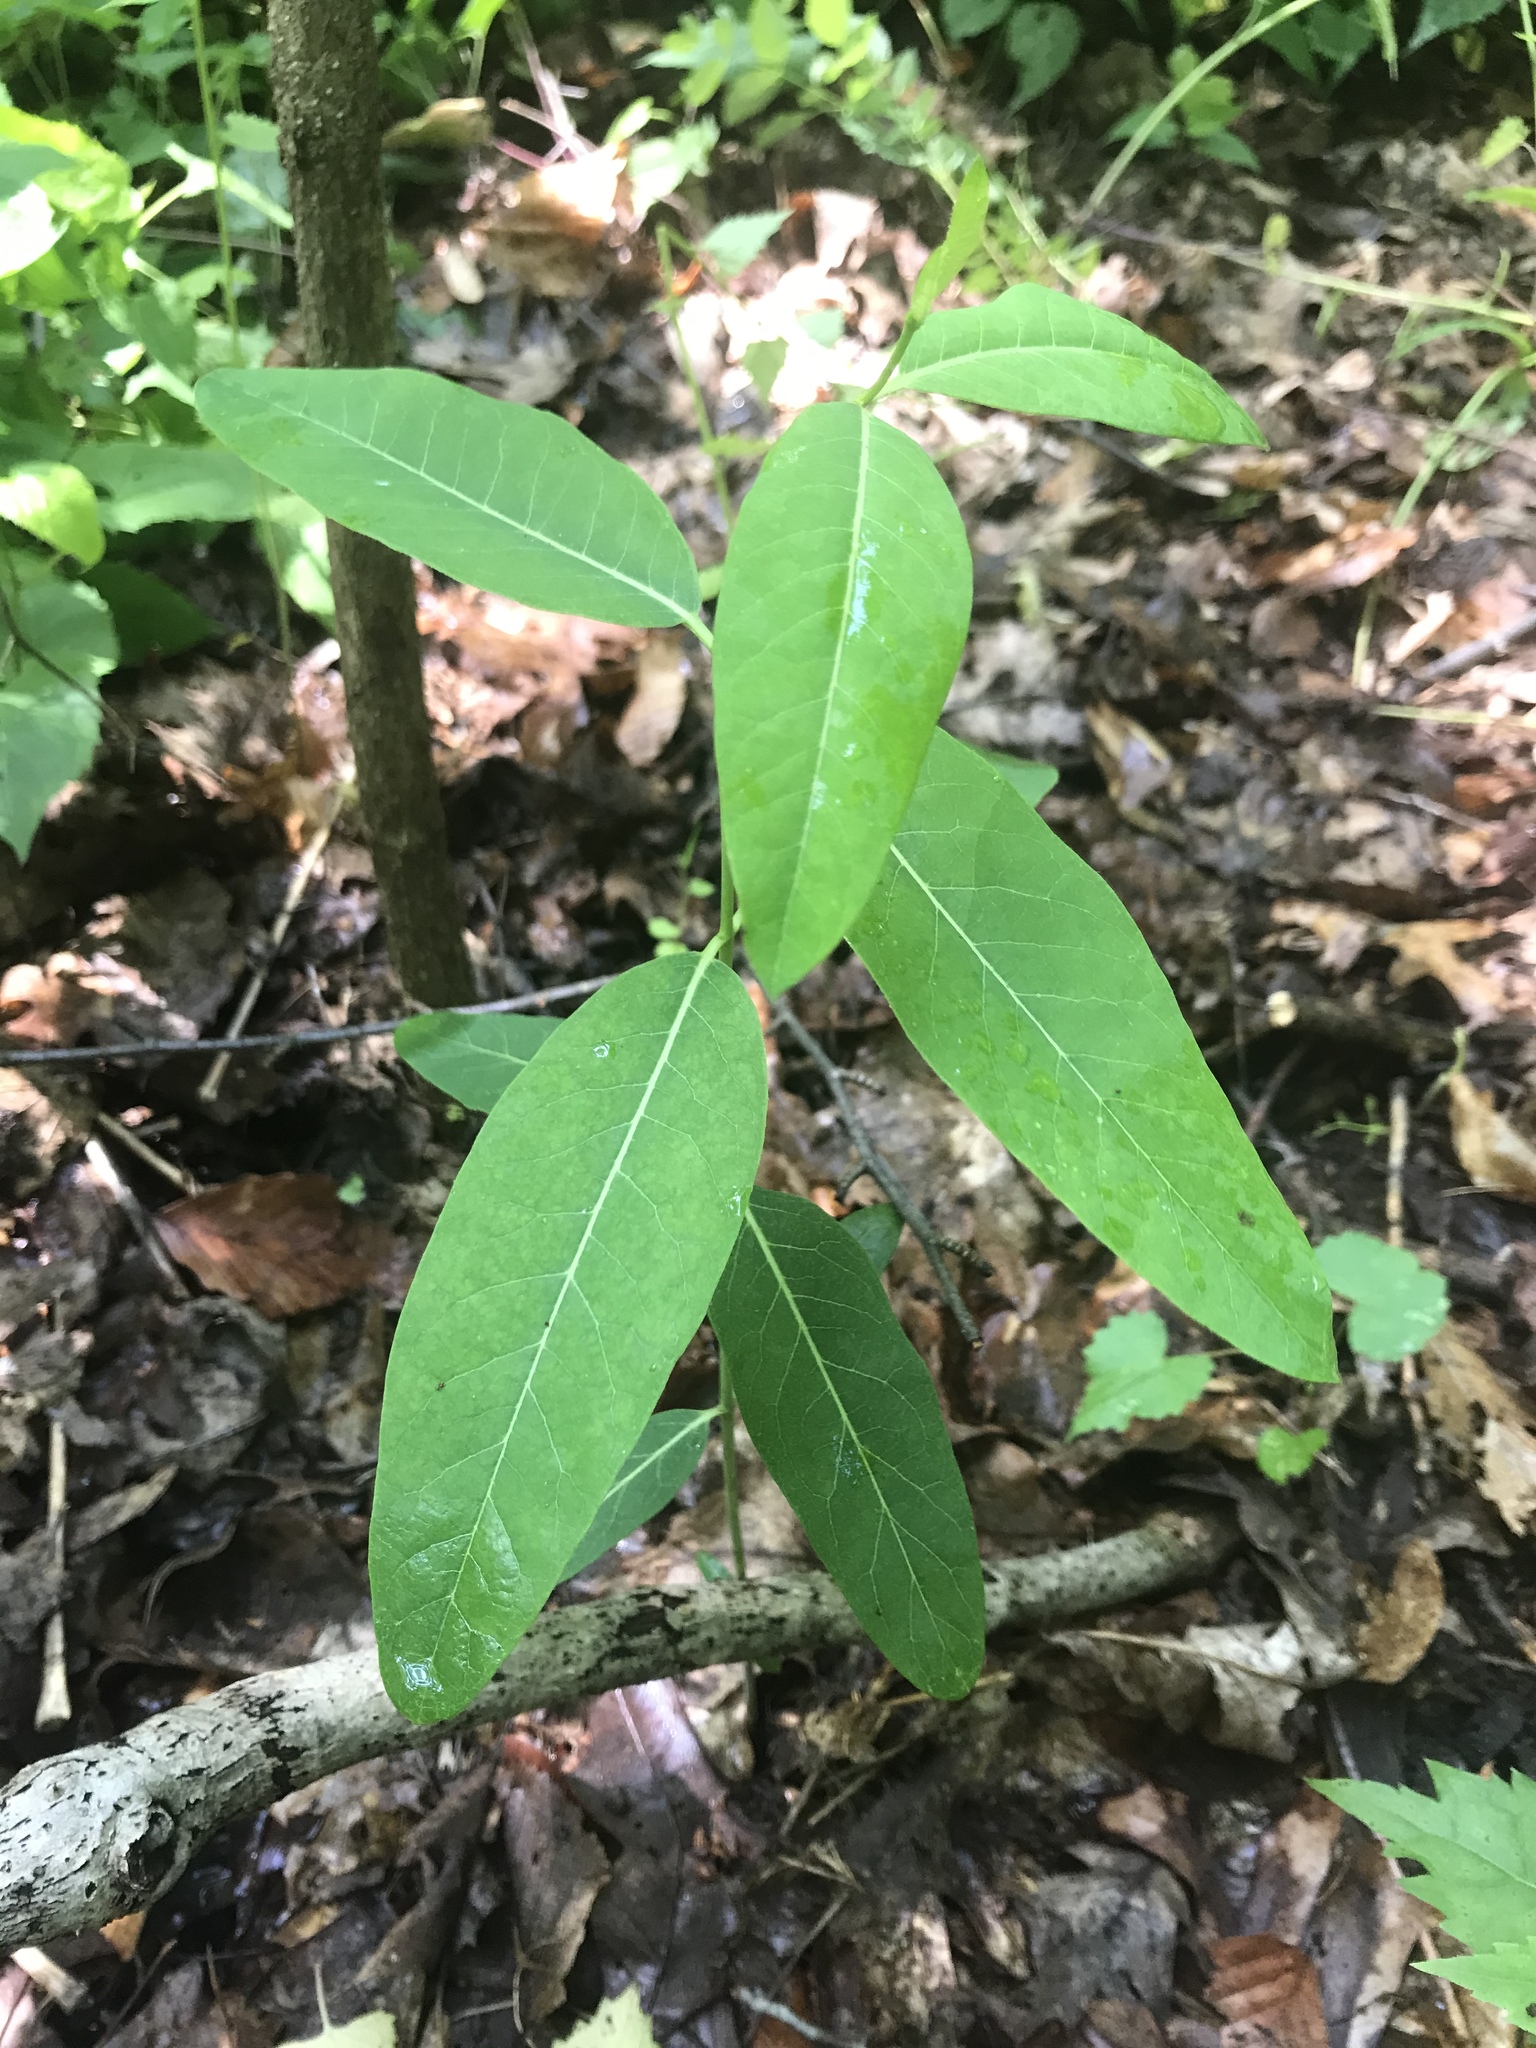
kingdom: Plantae
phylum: Tracheophyta
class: Magnoliopsida
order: Gentianales
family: Apocynaceae
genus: Apocynum
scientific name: Apocynum cannabinum
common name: Hemp dogbane
